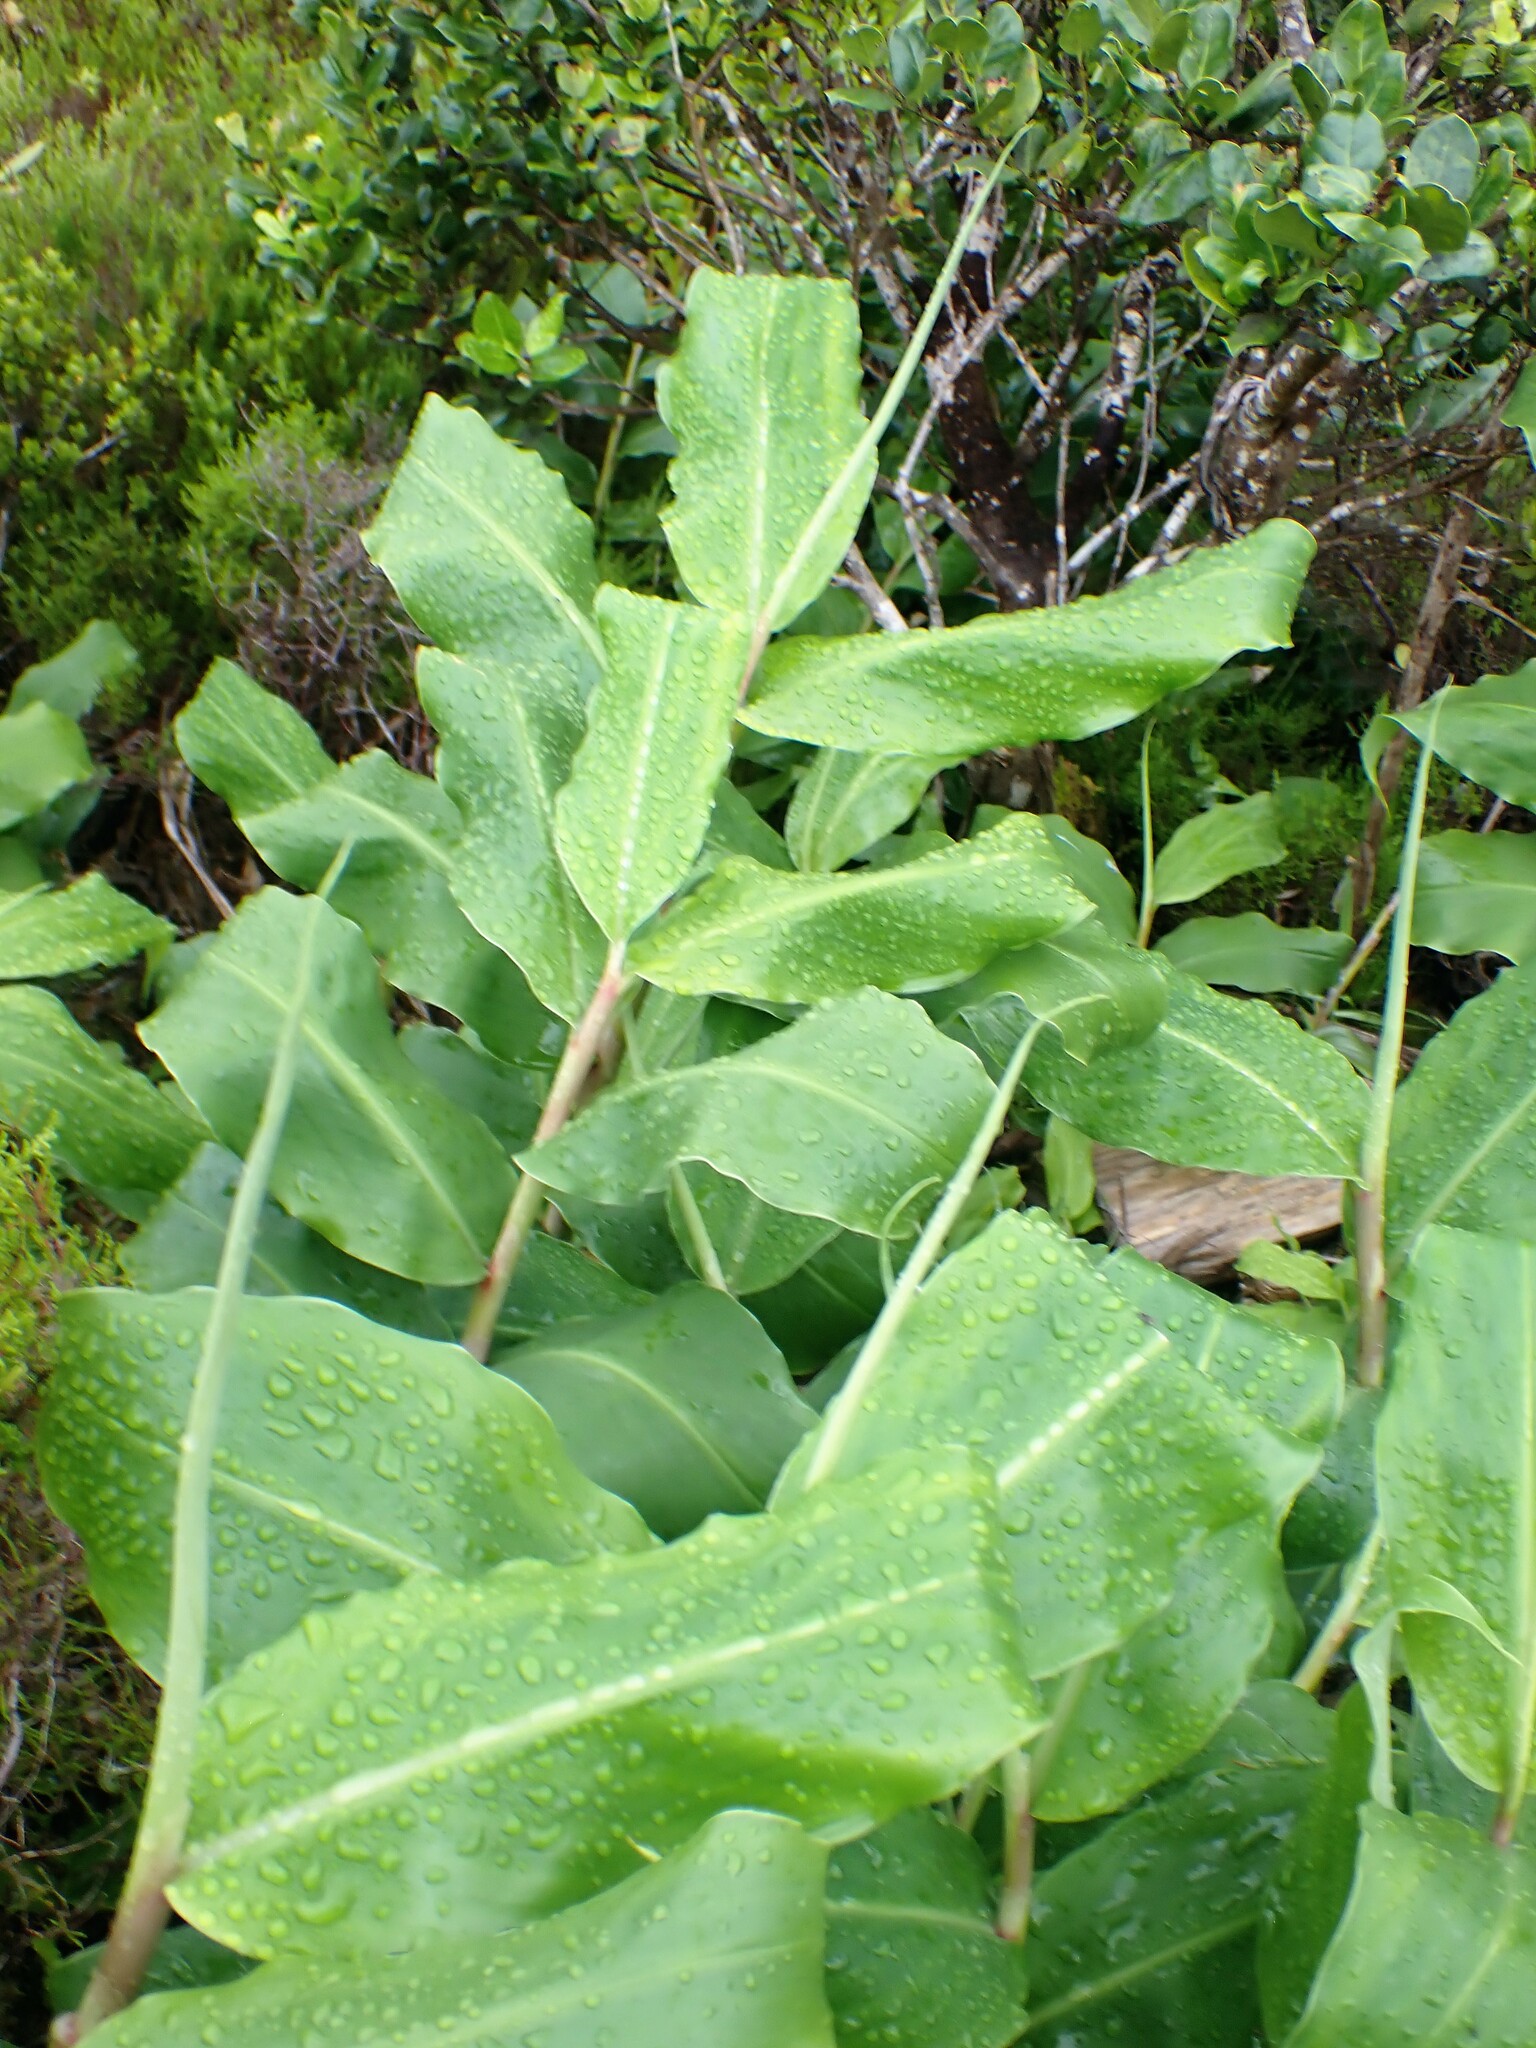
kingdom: Plantae
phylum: Tracheophyta
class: Liliopsida
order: Zingiberales
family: Zingiberaceae
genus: Hedychium
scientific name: Hedychium gardnerianum
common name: Himalayan ginger
